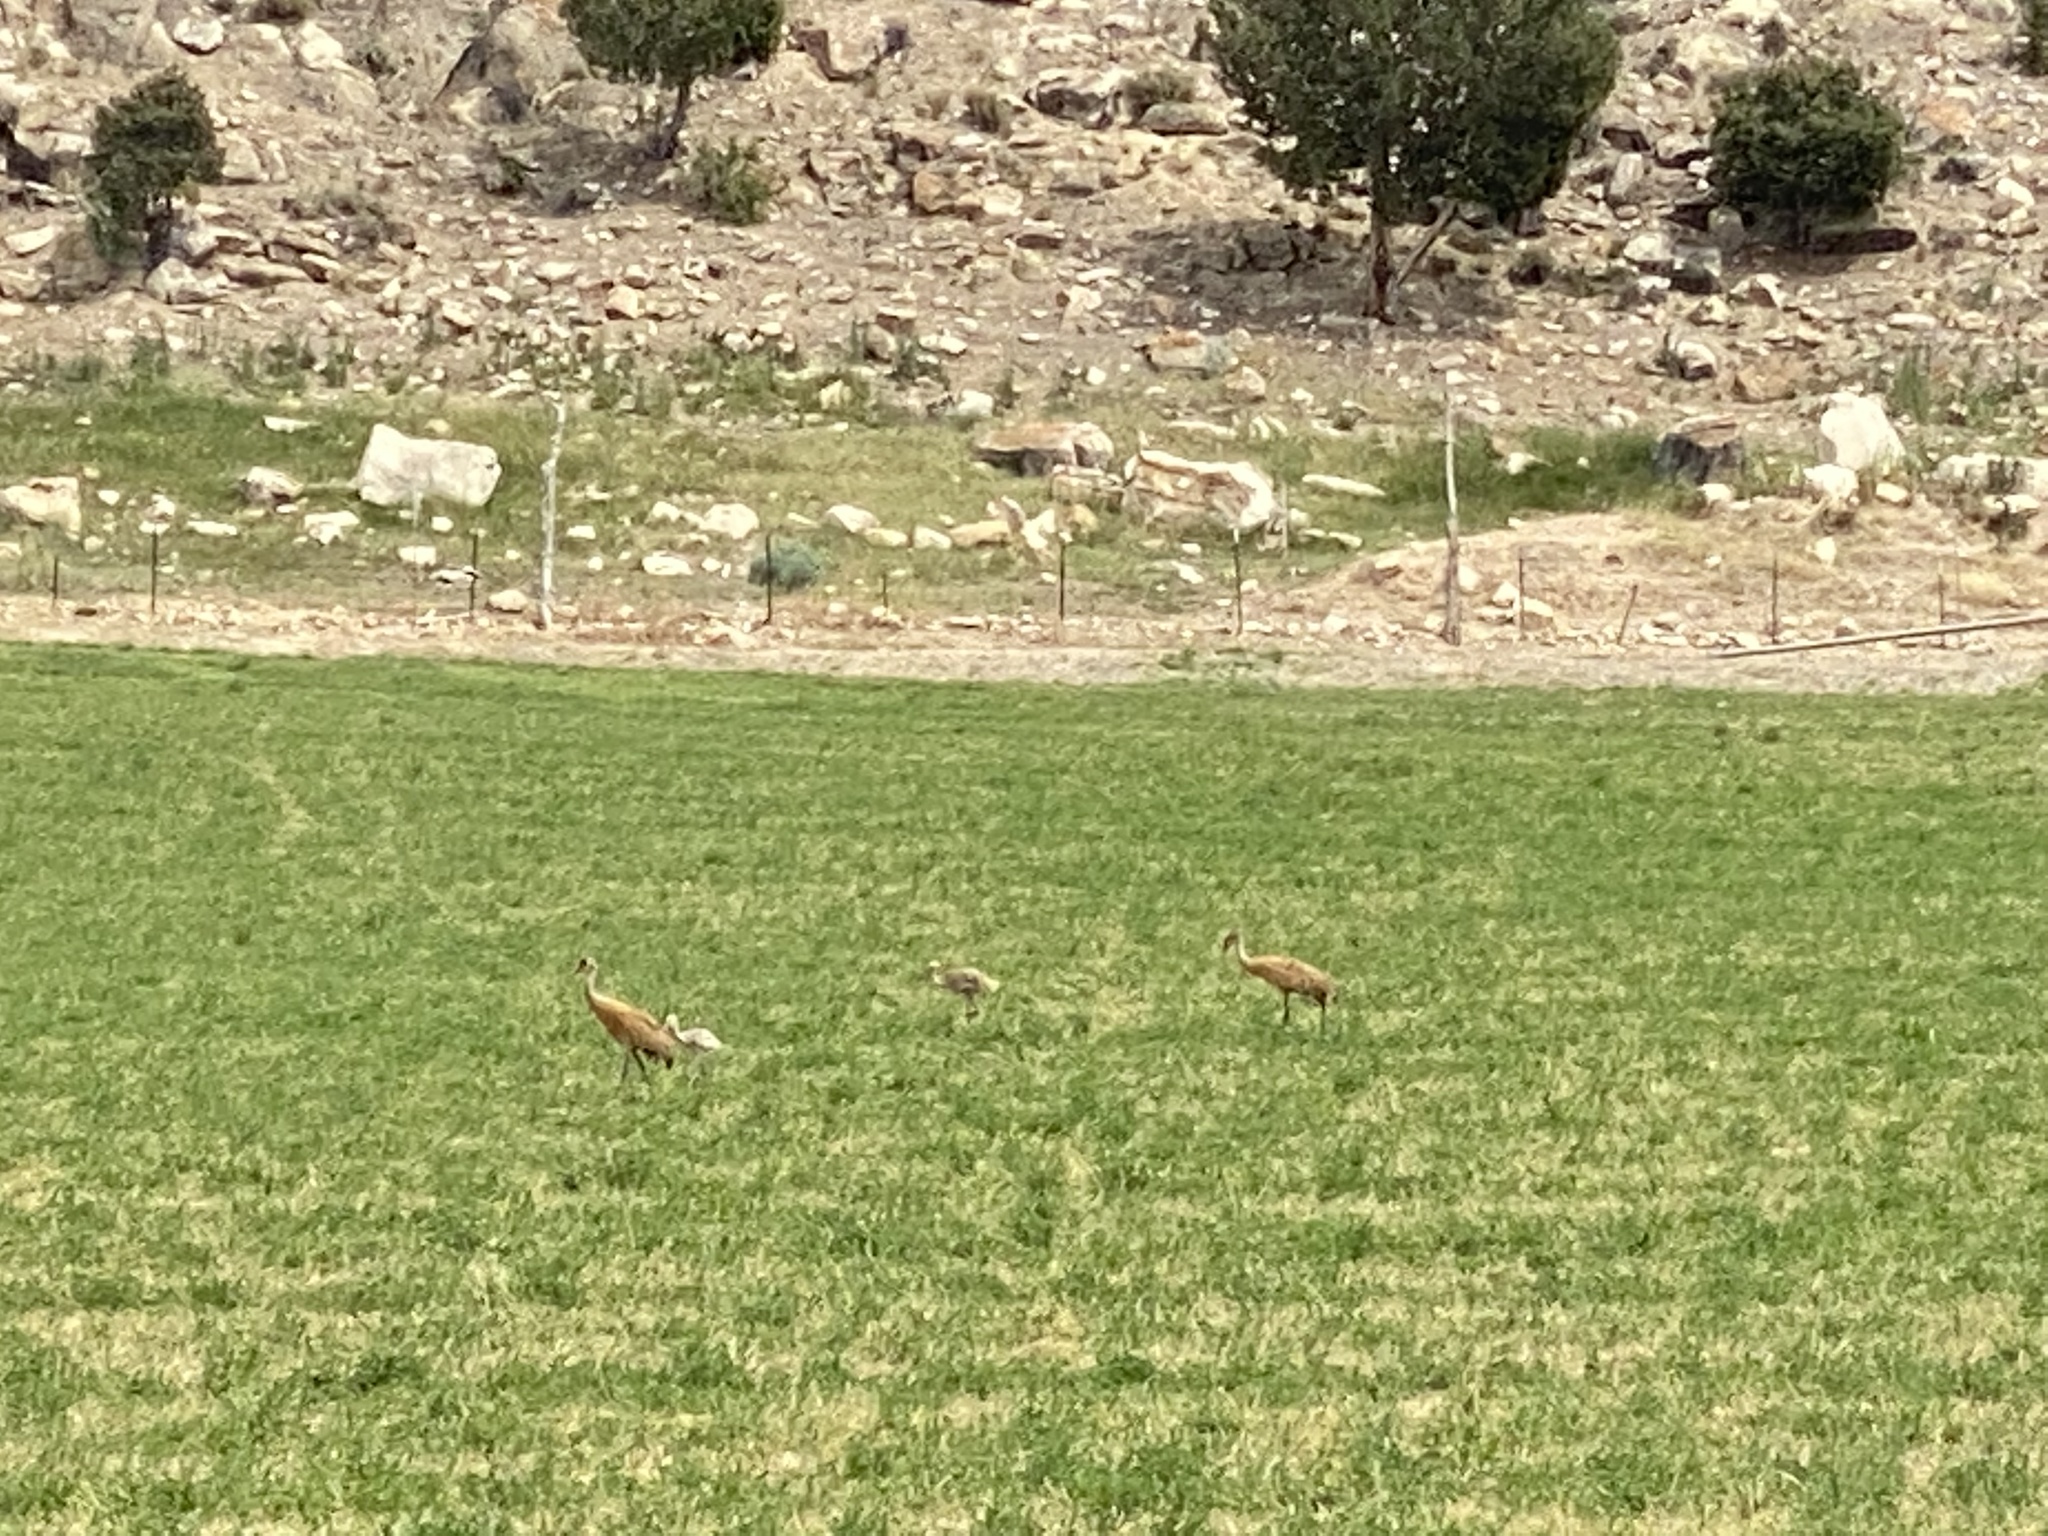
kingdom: Animalia
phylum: Chordata
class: Aves
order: Gruiformes
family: Gruidae
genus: Grus
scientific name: Grus canadensis
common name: Sandhill crane
